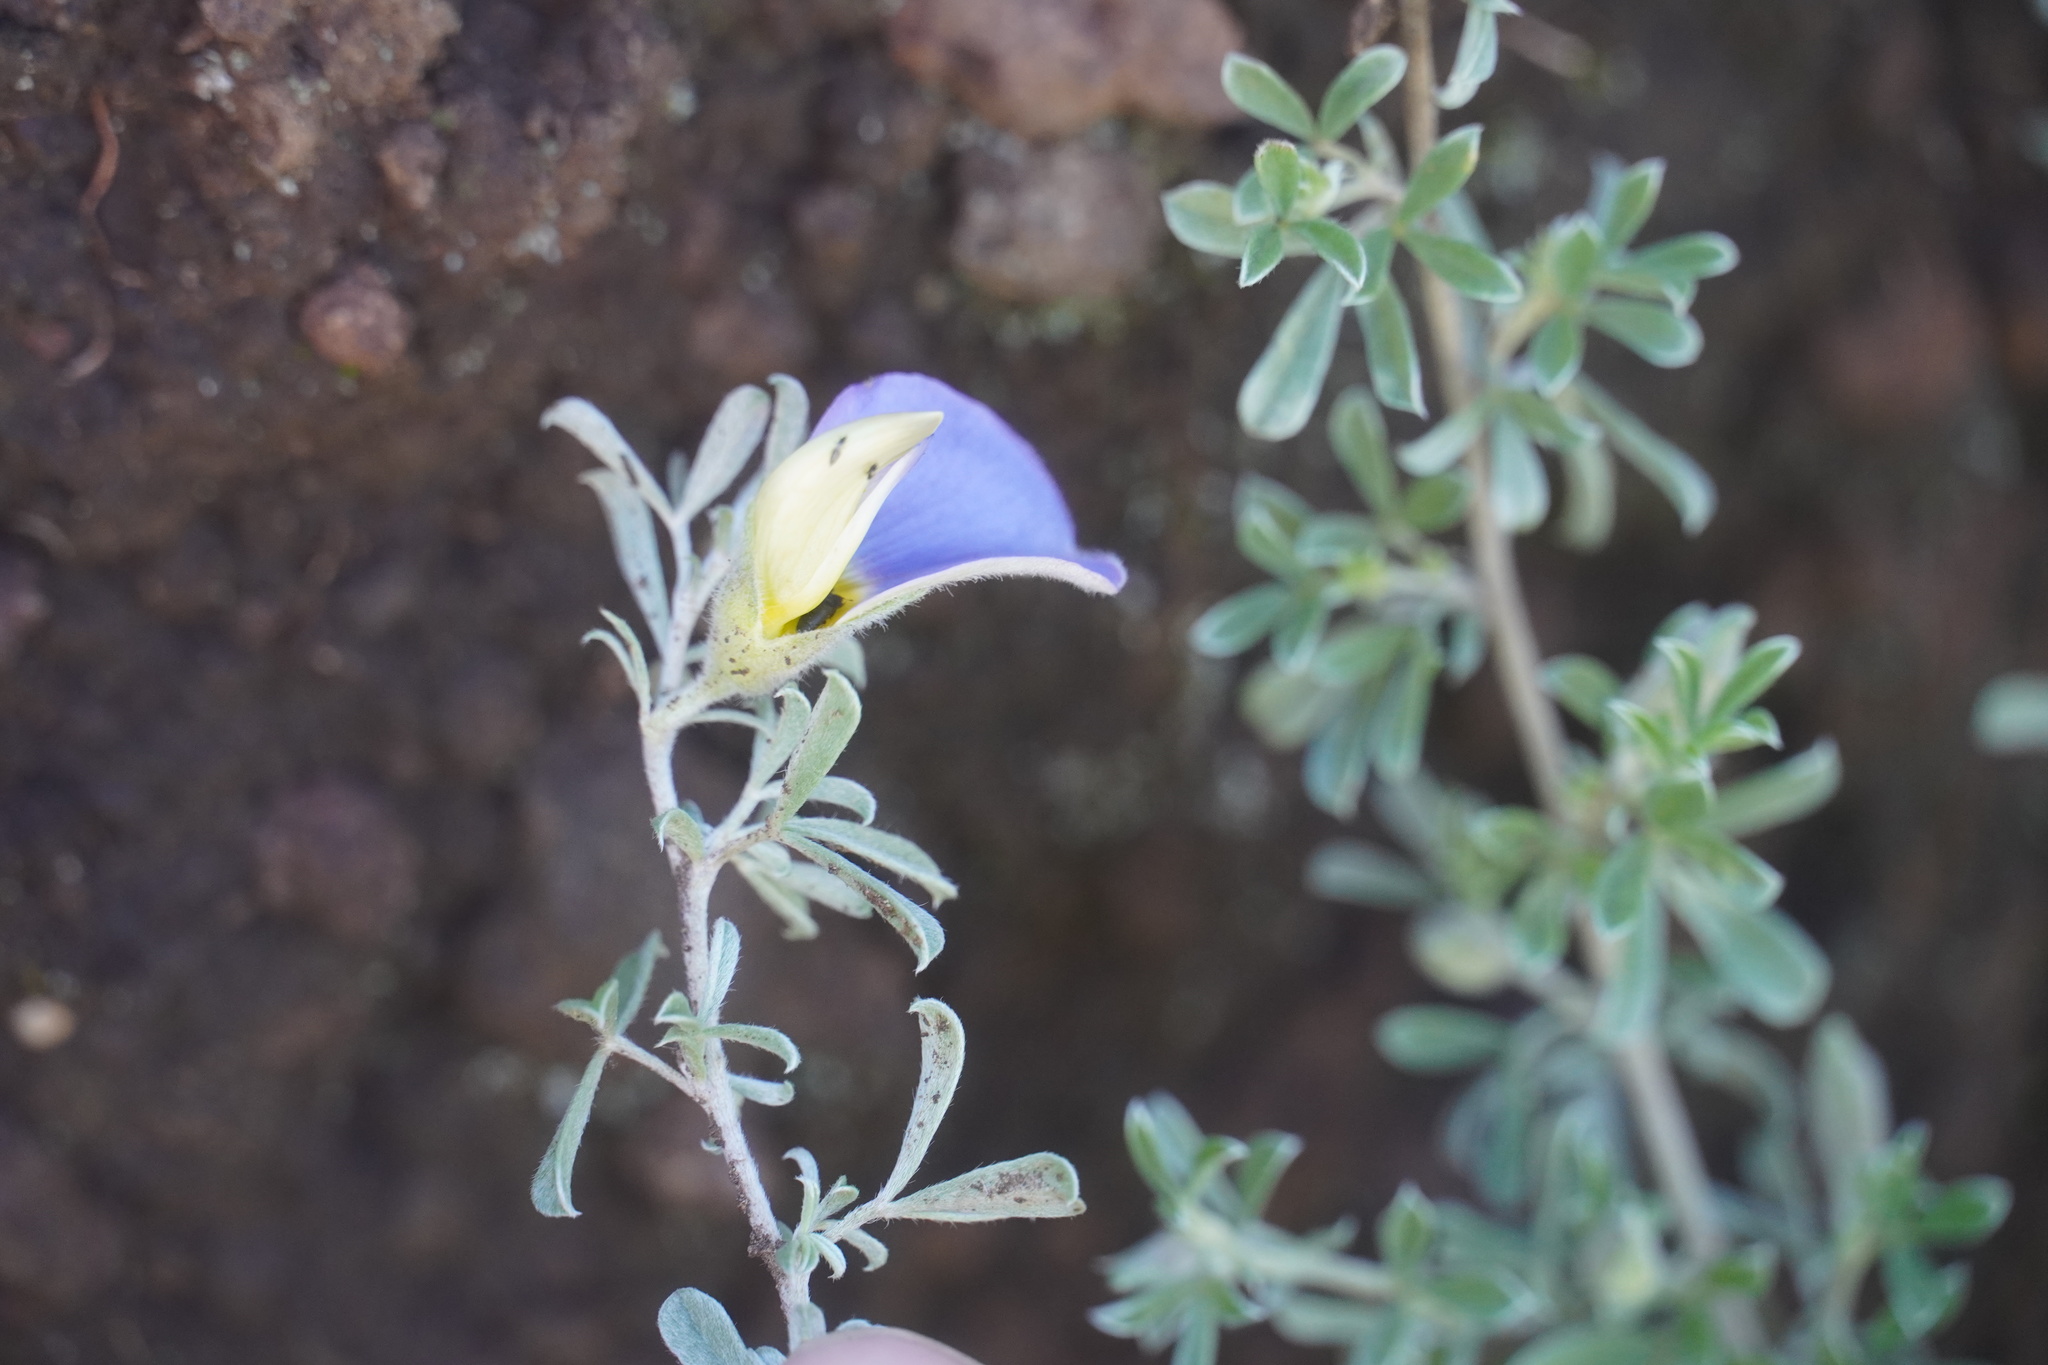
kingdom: Plantae
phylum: Tracheophyta
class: Magnoliopsida
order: Fabales
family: Fabaceae
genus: Lotononis
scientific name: Lotononis sericophylla
